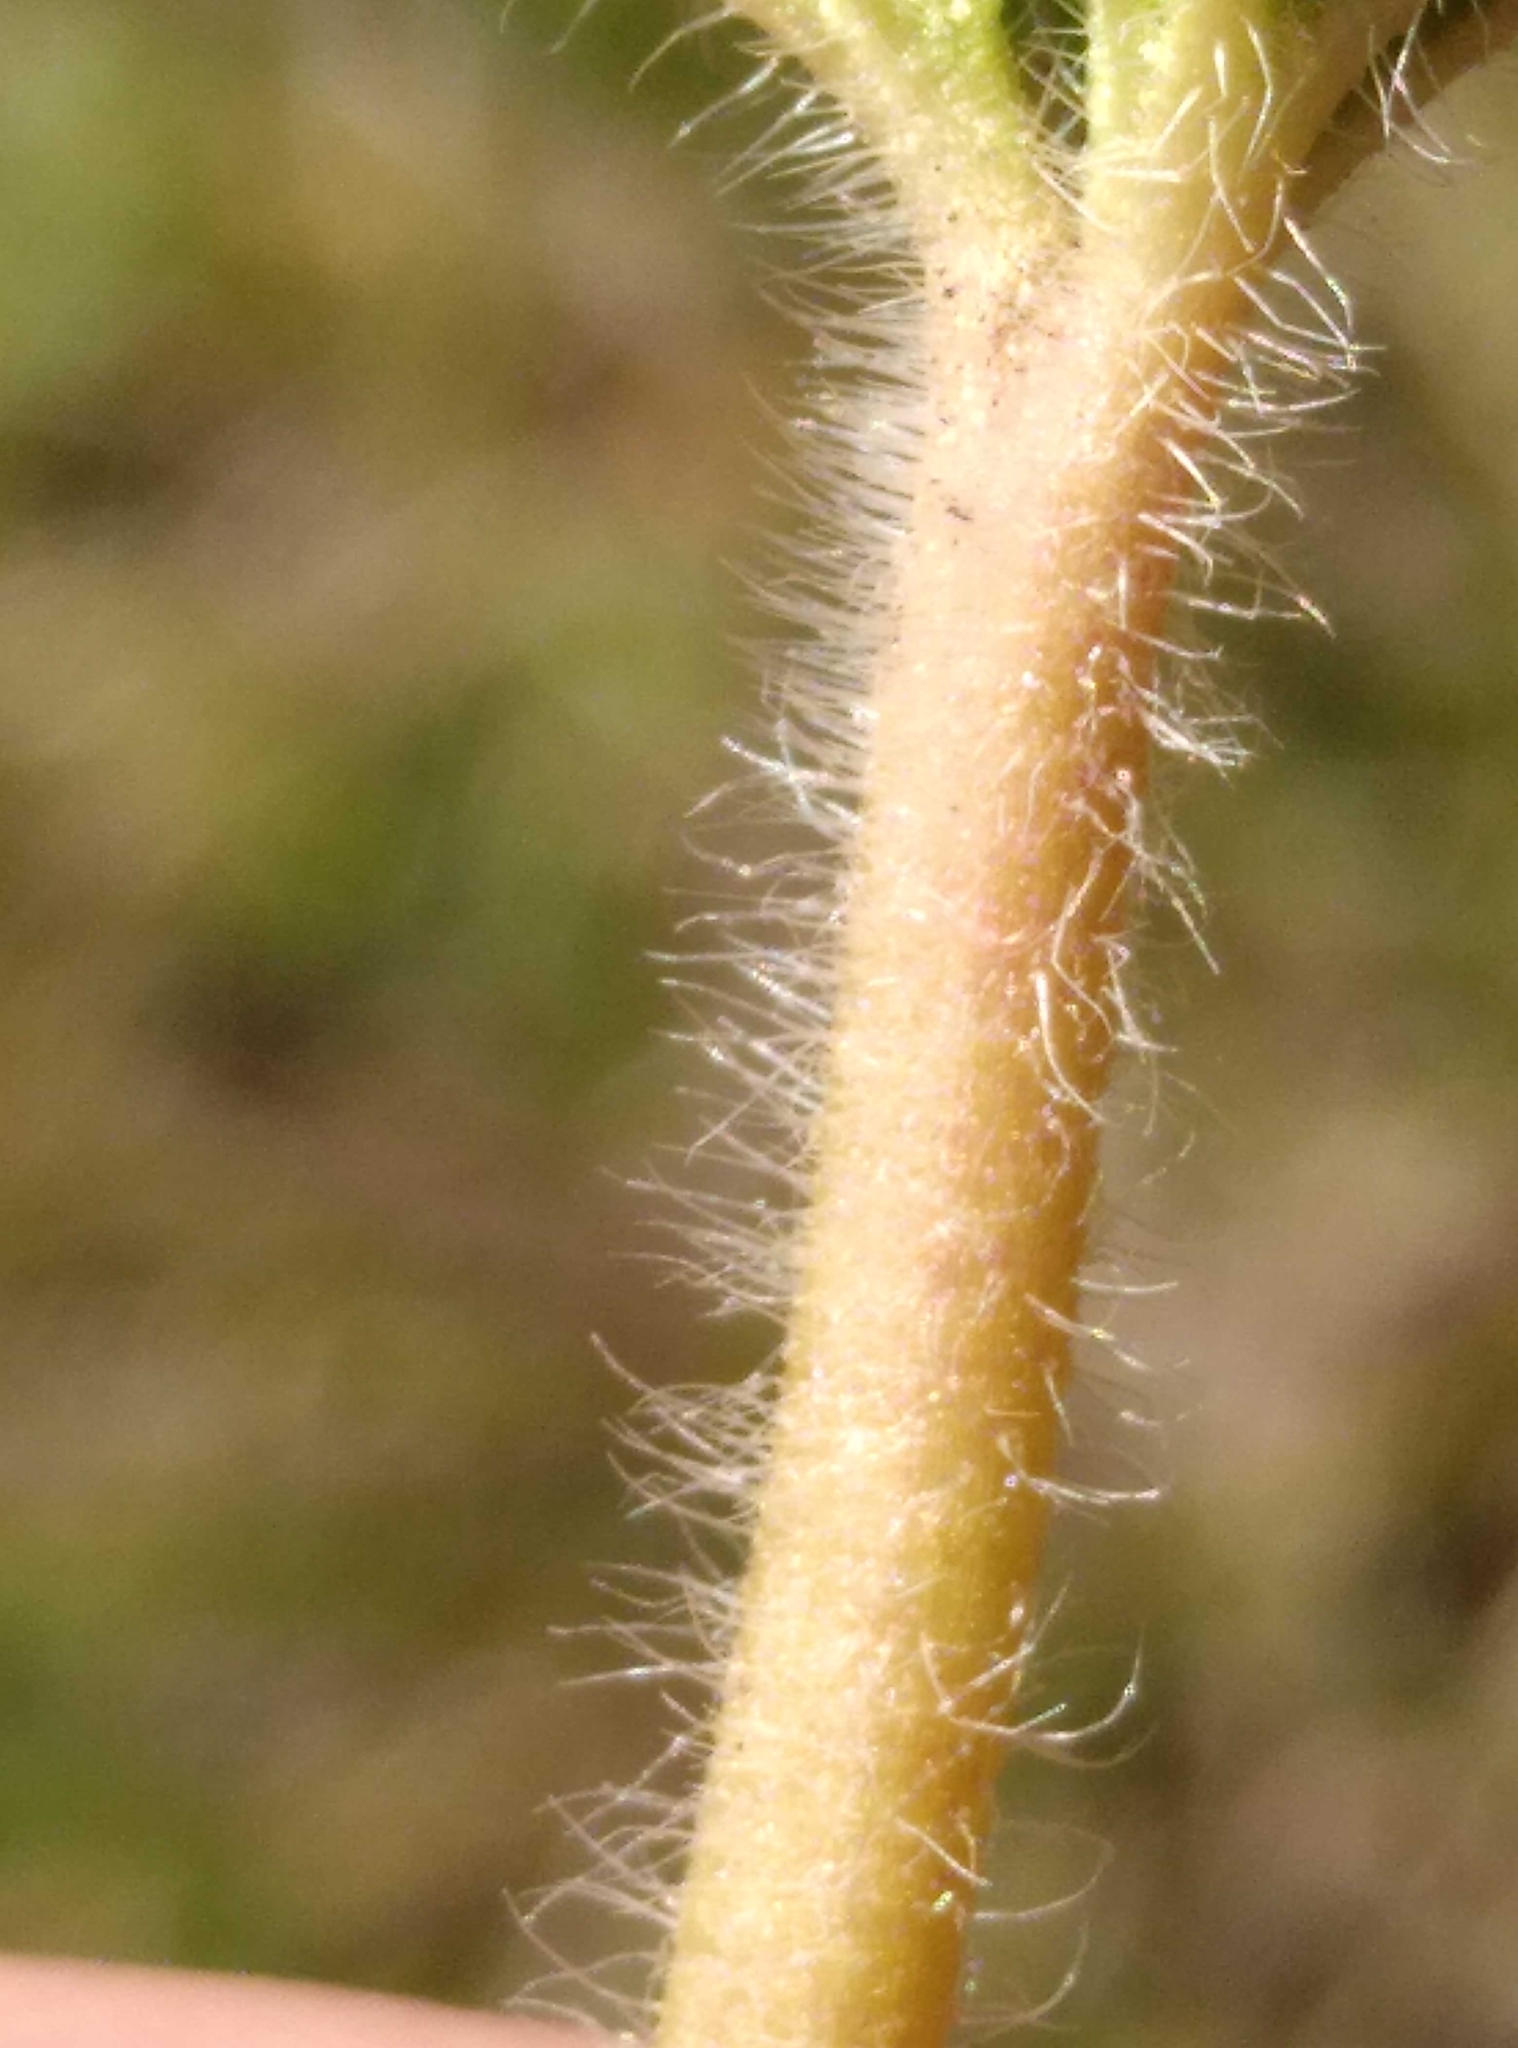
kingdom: Plantae
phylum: Tracheophyta
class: Magnoliopsida
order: Geraniales
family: Geraniaceae
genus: Geranium
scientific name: Geranium solanderi
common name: Solander's geranium
